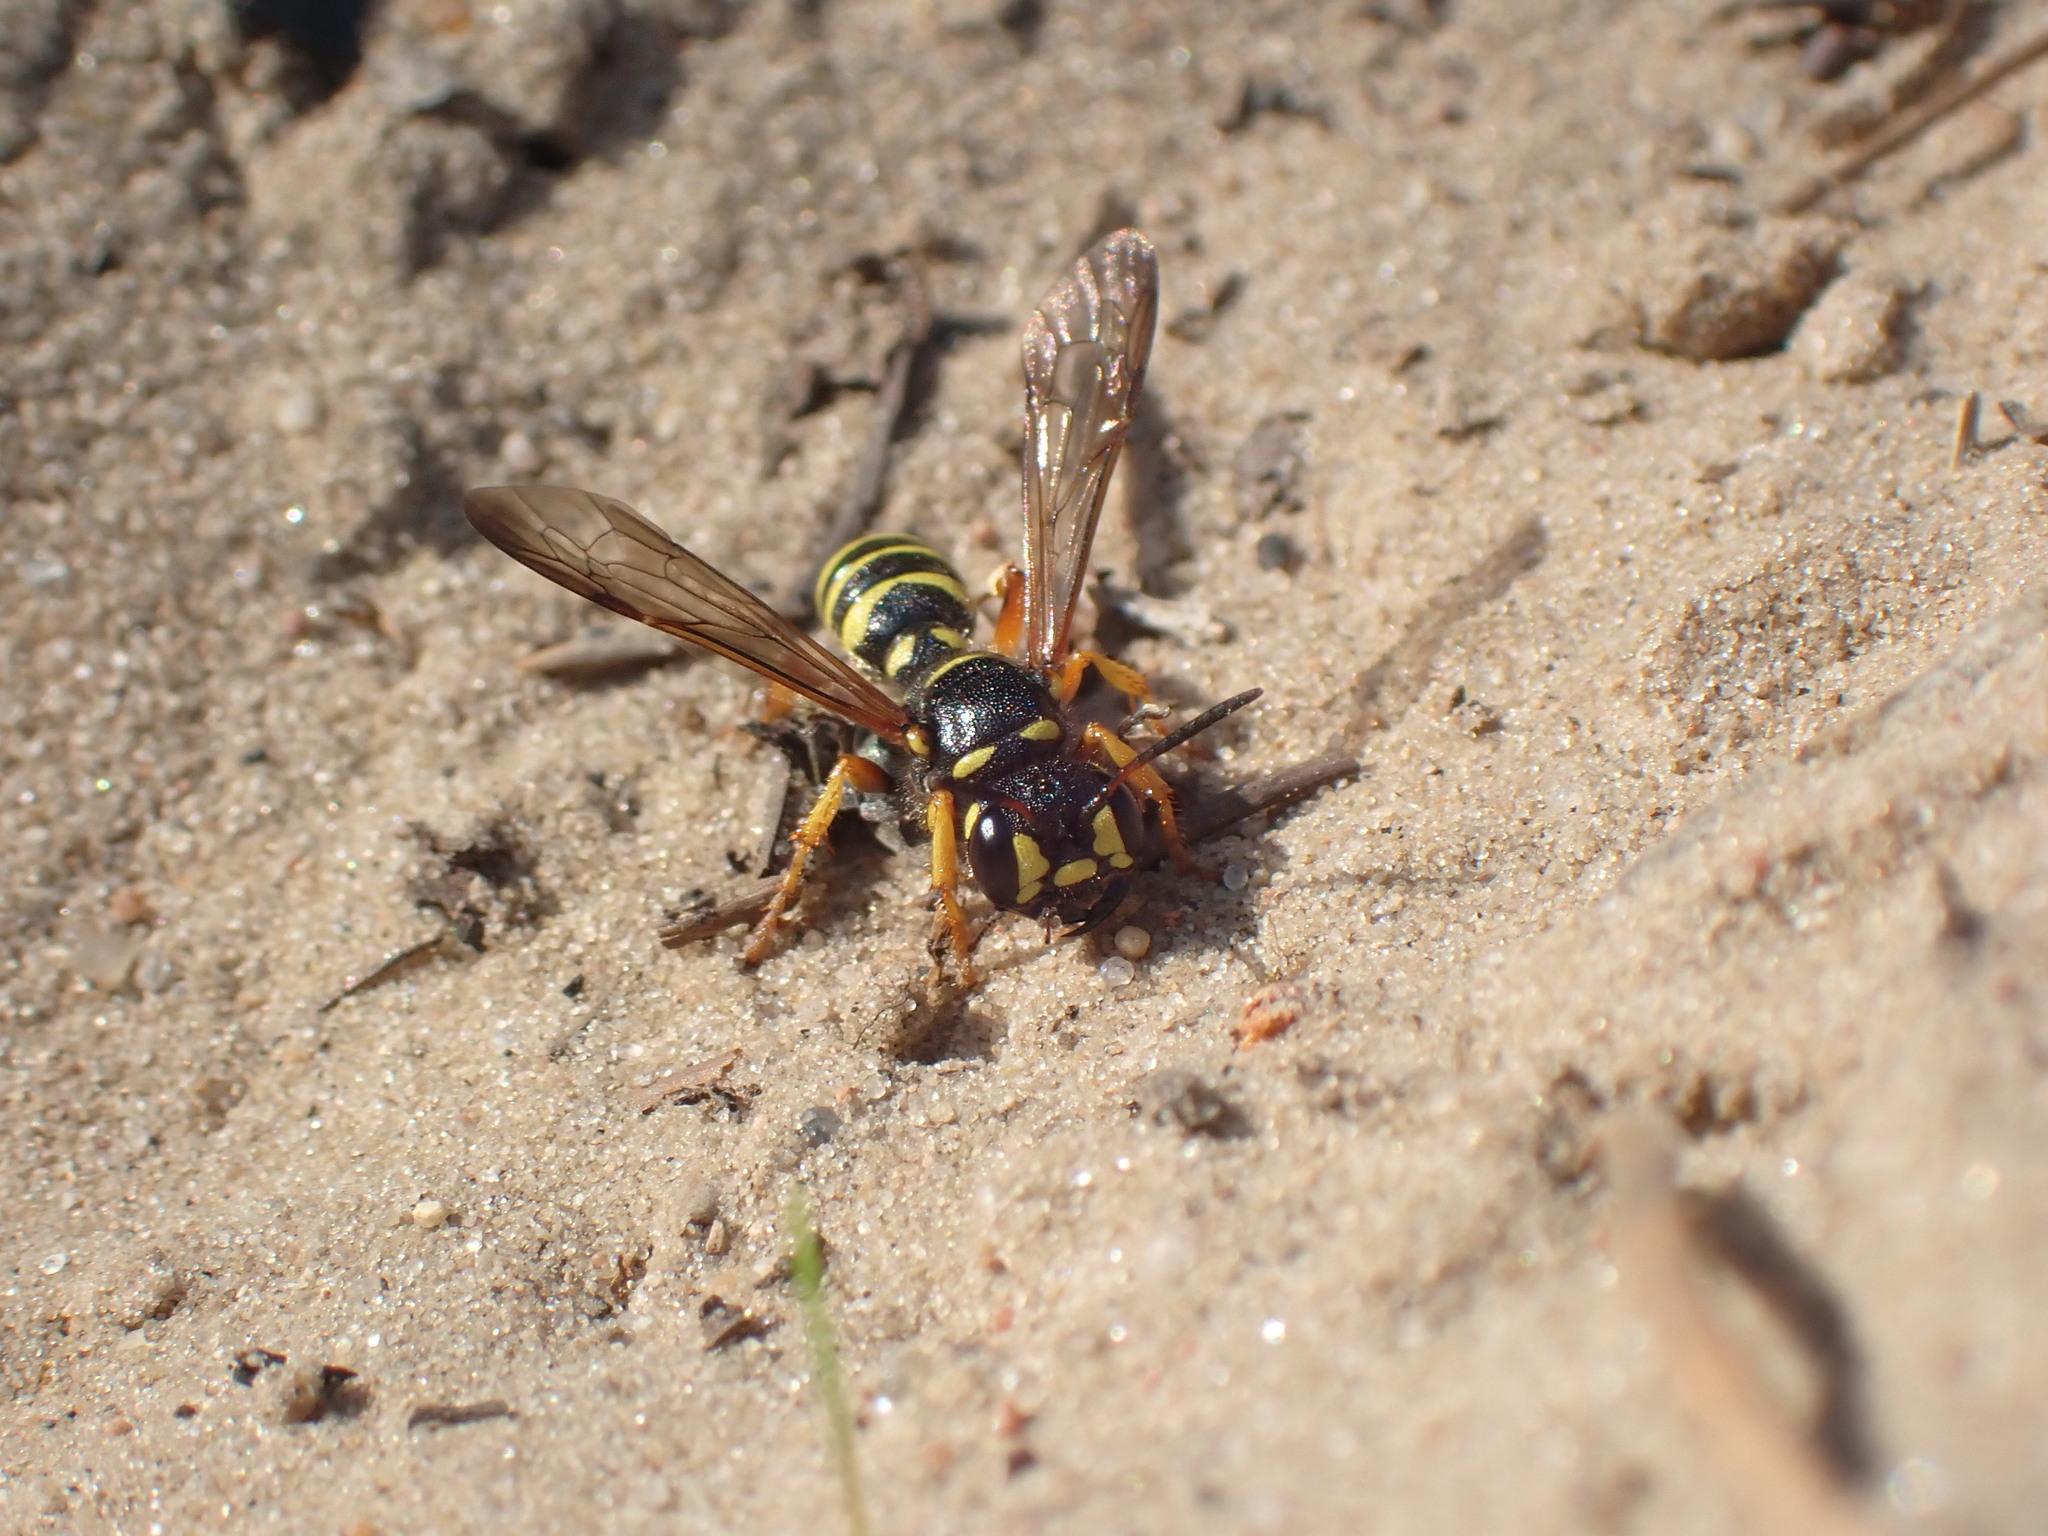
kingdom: Animalia
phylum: Arthropoda
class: Insecta
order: Hymenoptera
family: Crabronidae
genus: Cerceris
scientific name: Cerceris arenaria
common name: Sand tailed digger wasp
